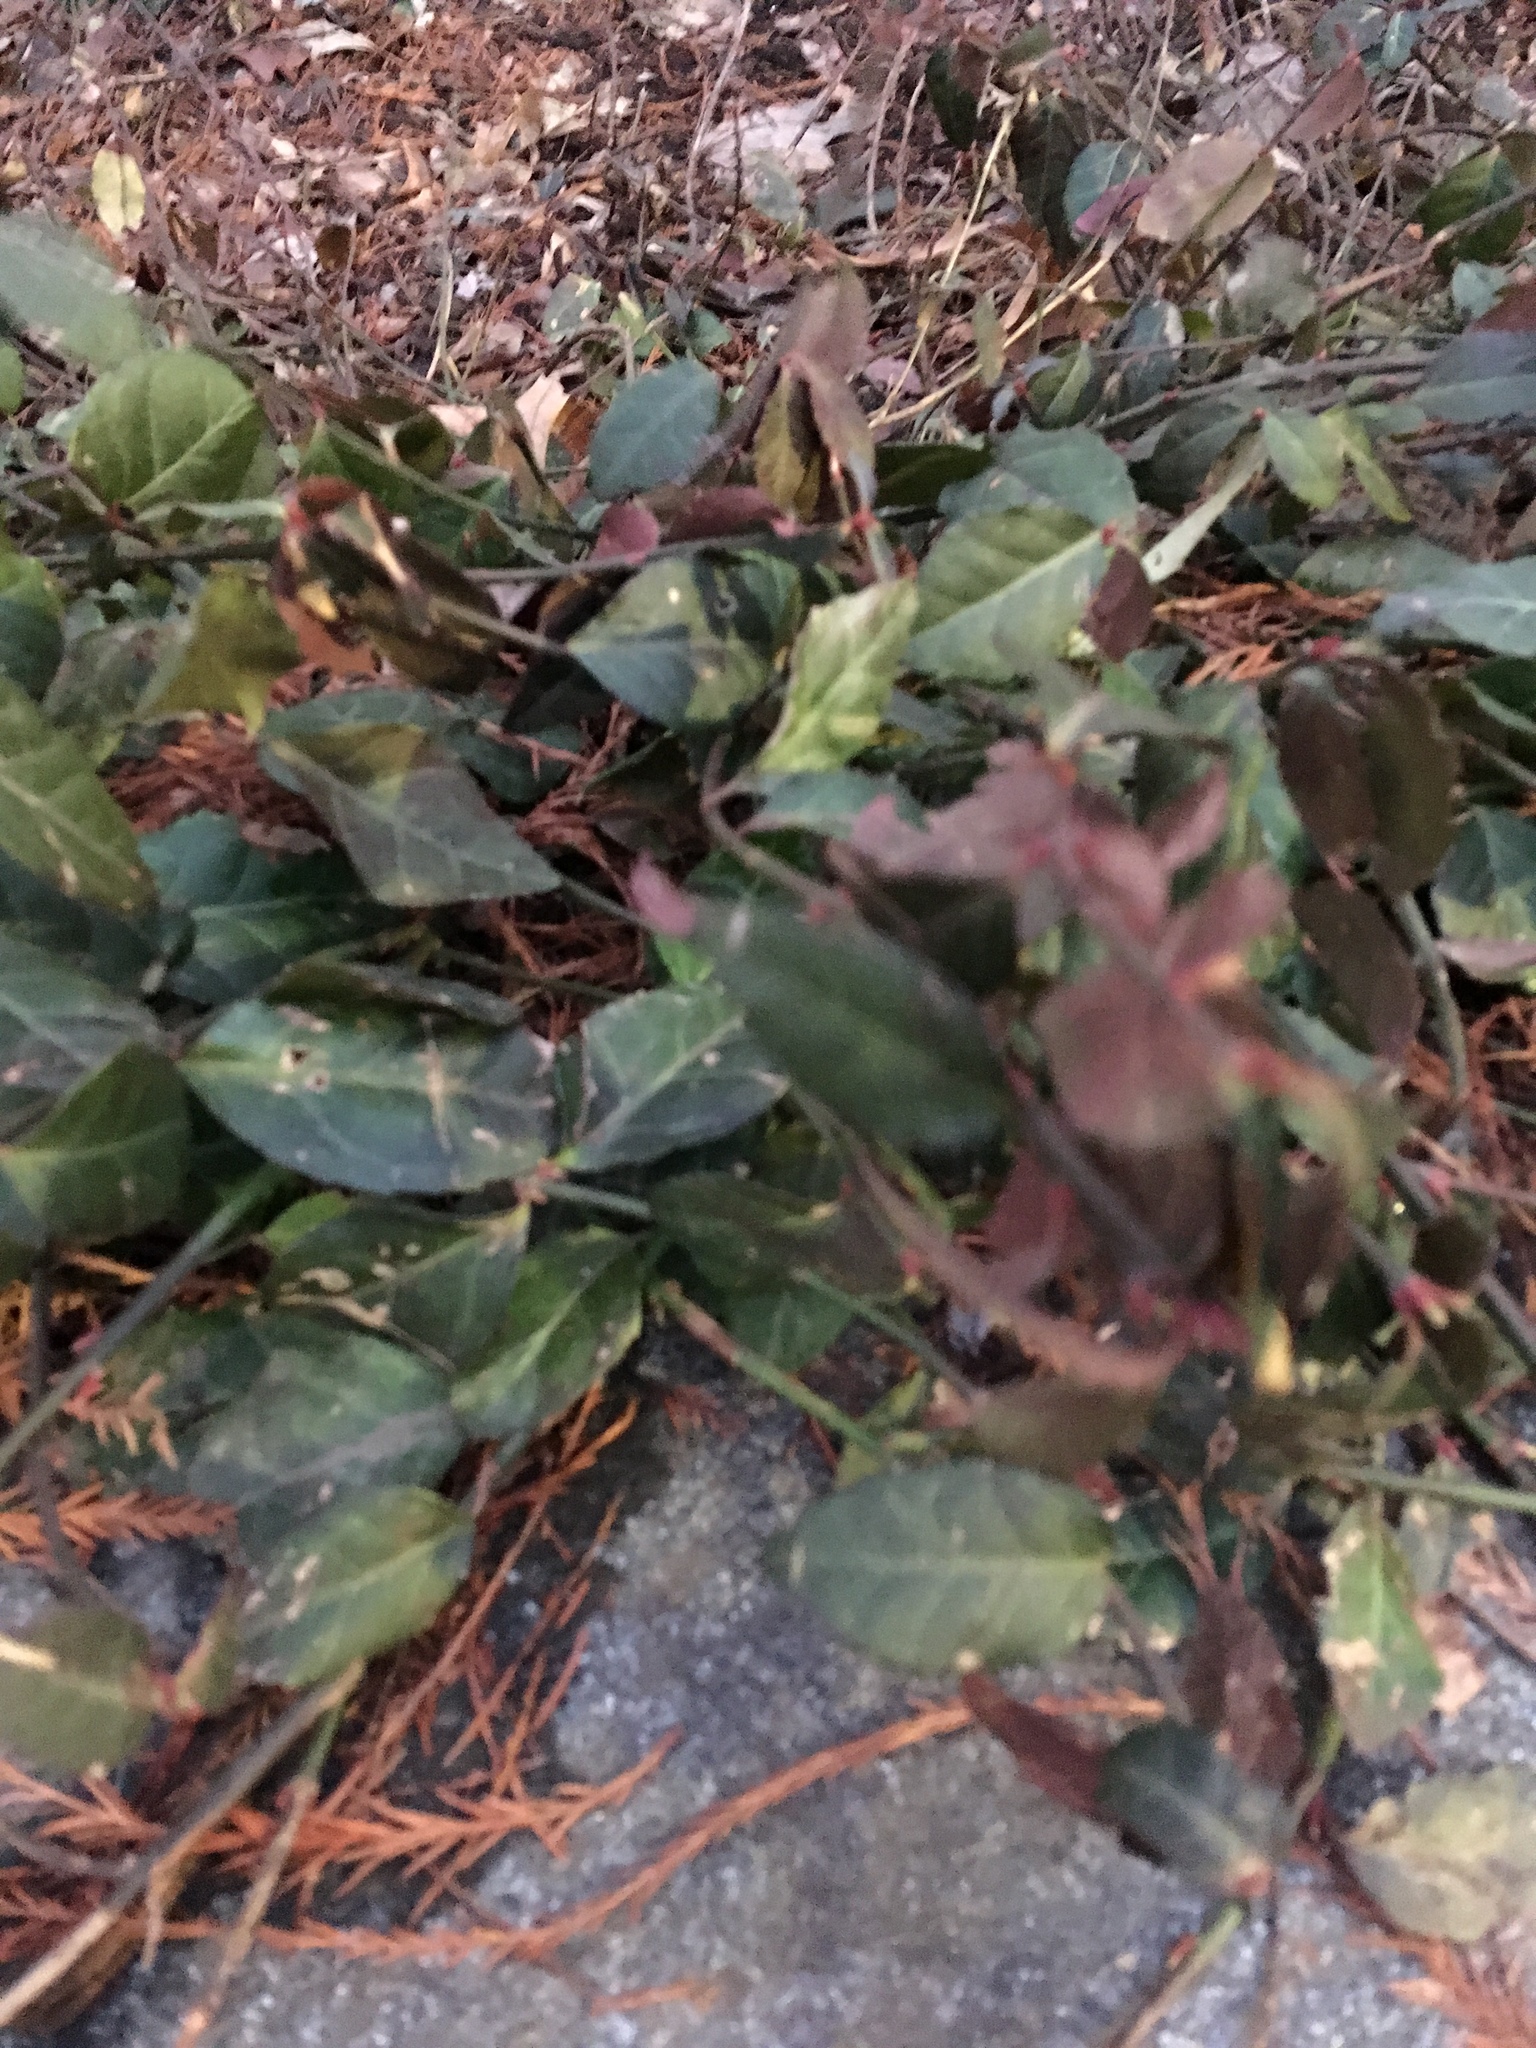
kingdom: Plantae
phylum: Tracheophyta
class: Magnoliopsida
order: Celastrales
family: Celastraceae
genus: Euonymus
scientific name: Euonymus fortunei
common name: Climbing euonymus
